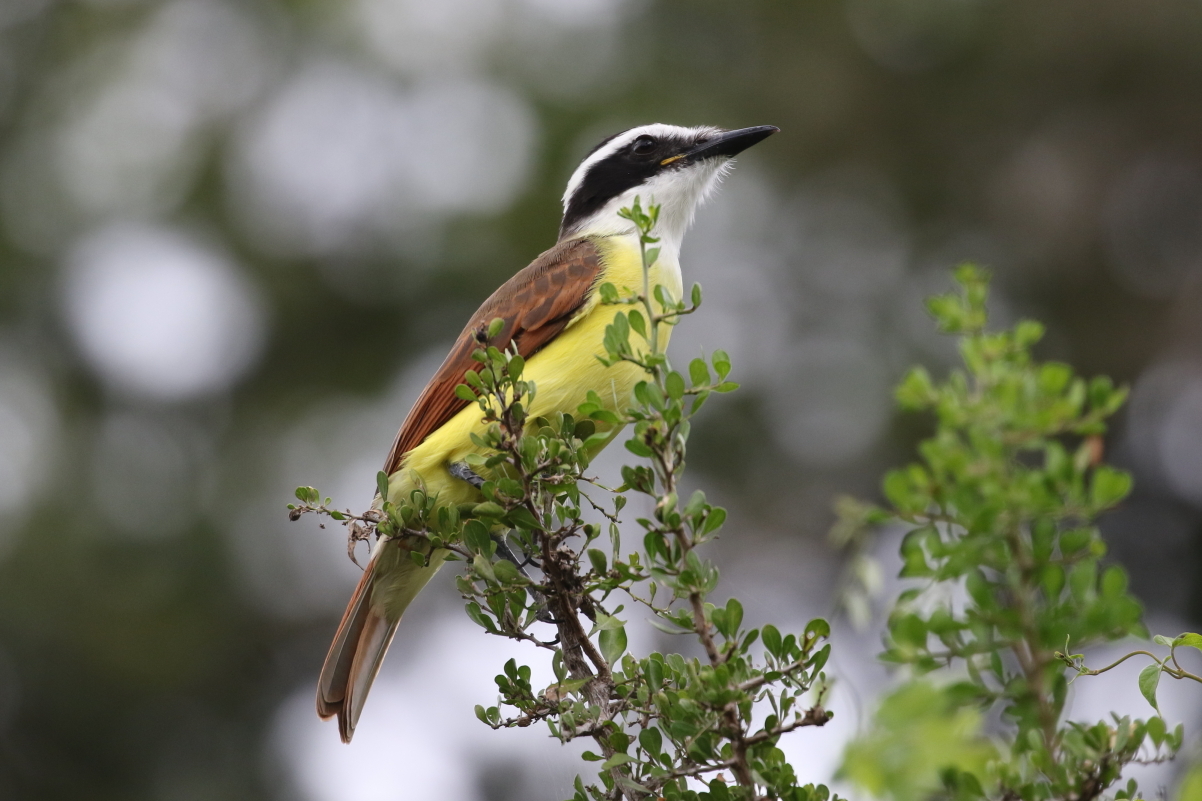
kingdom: Animalia
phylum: Chordata
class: Aves
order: Passeriformes
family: Tyrannidae
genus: Pitangus
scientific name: Pitangus sulphuratus
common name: Great kiskadee
